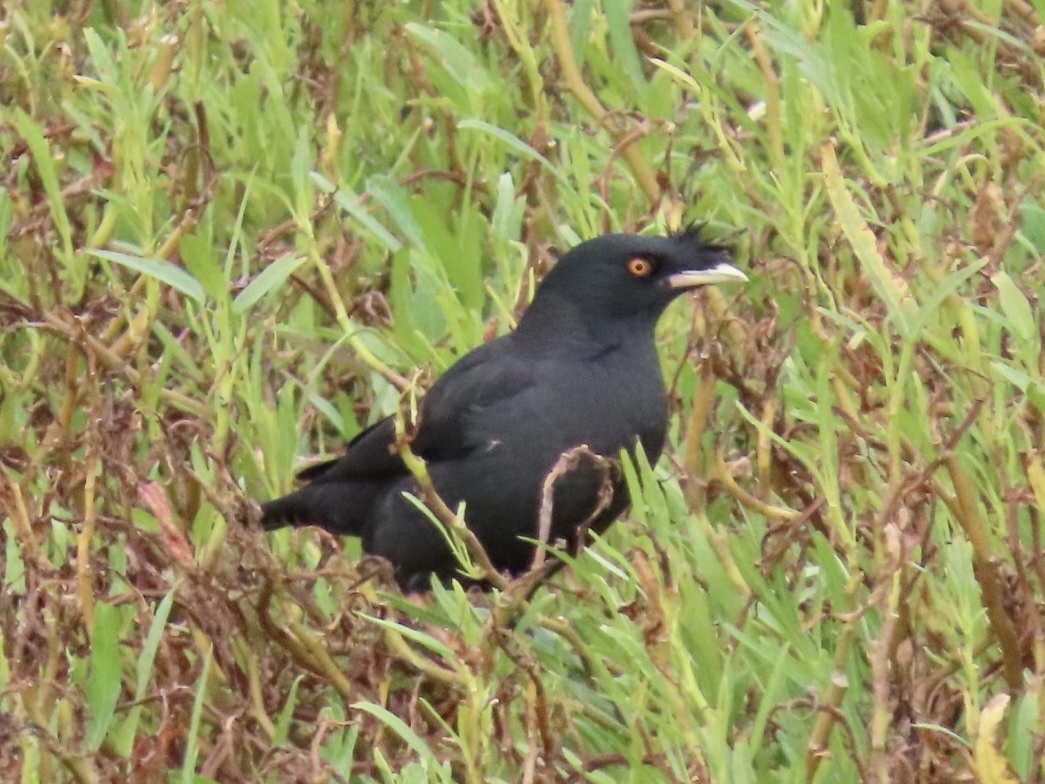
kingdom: Animalia
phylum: Chordata
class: Aves
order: Passeriformes
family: Sturnidae
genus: Acridotheres
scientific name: Acridotheres cristatellus
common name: Crested myna
